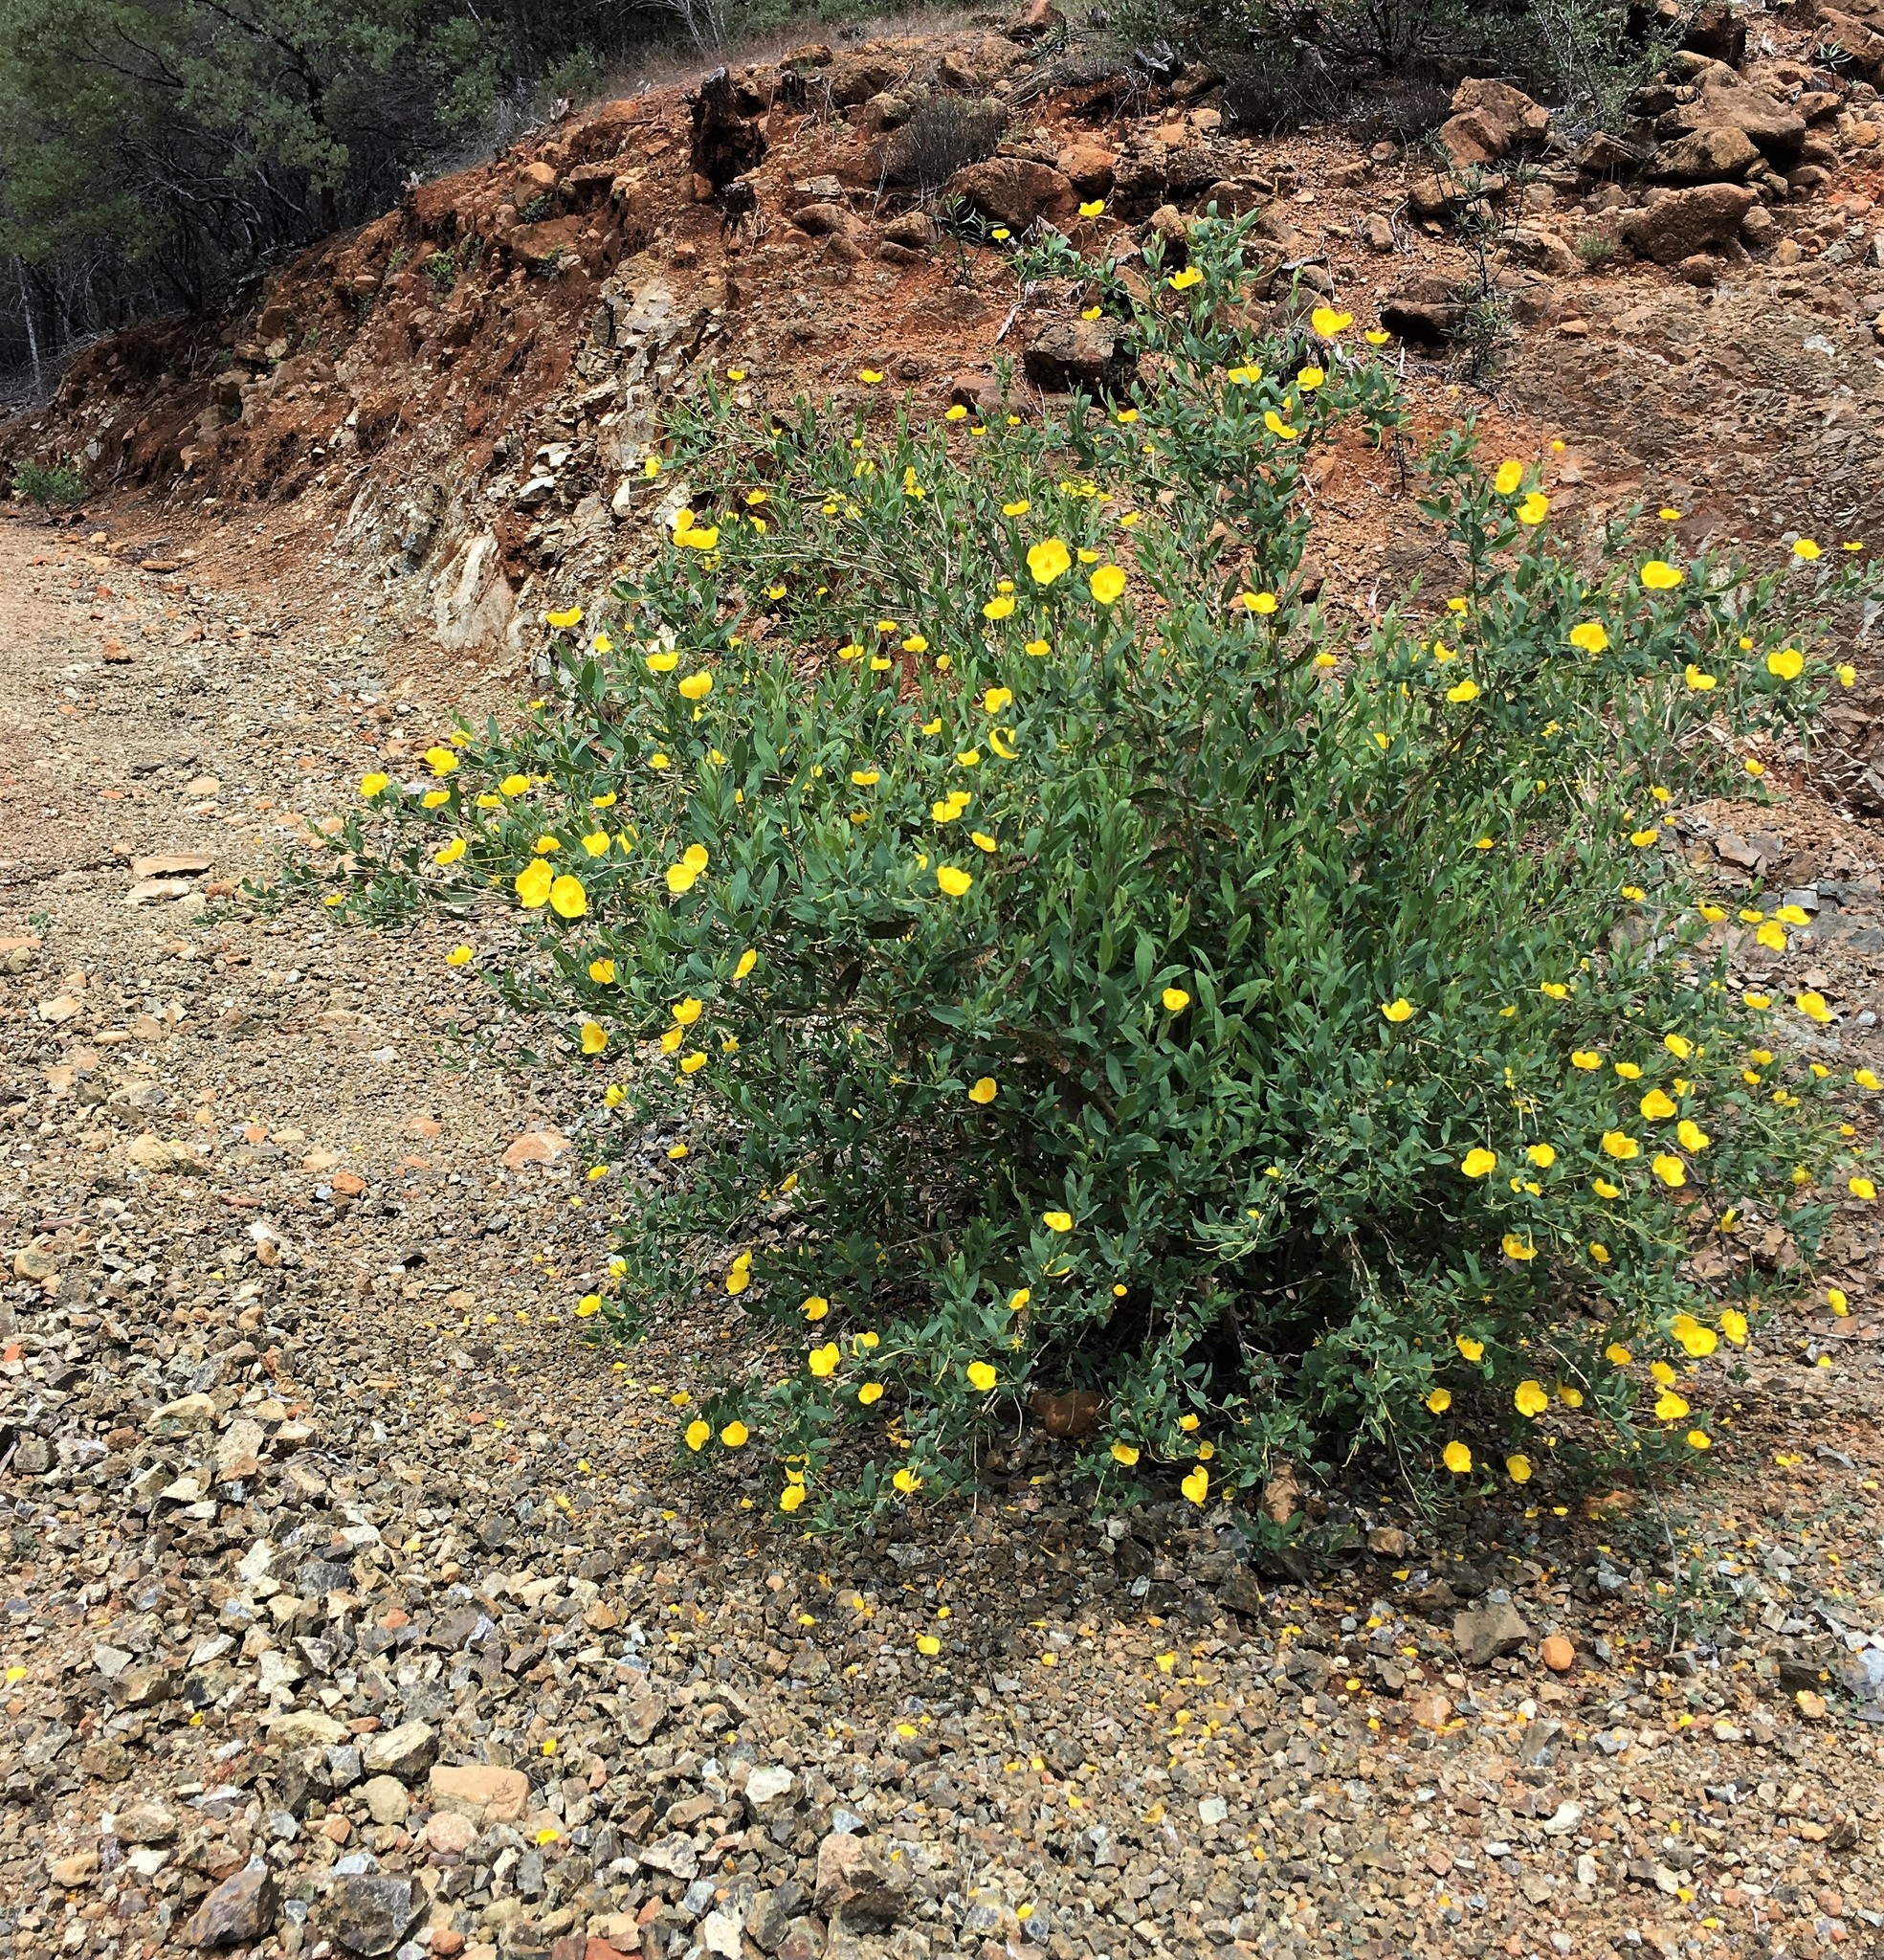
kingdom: Plantae
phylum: Tracheophyta
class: Magnoliopsida
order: Ranunculales
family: Papaveraceae
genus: Dendromecon
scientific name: Dendromecon rigida
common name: Tree poppy
